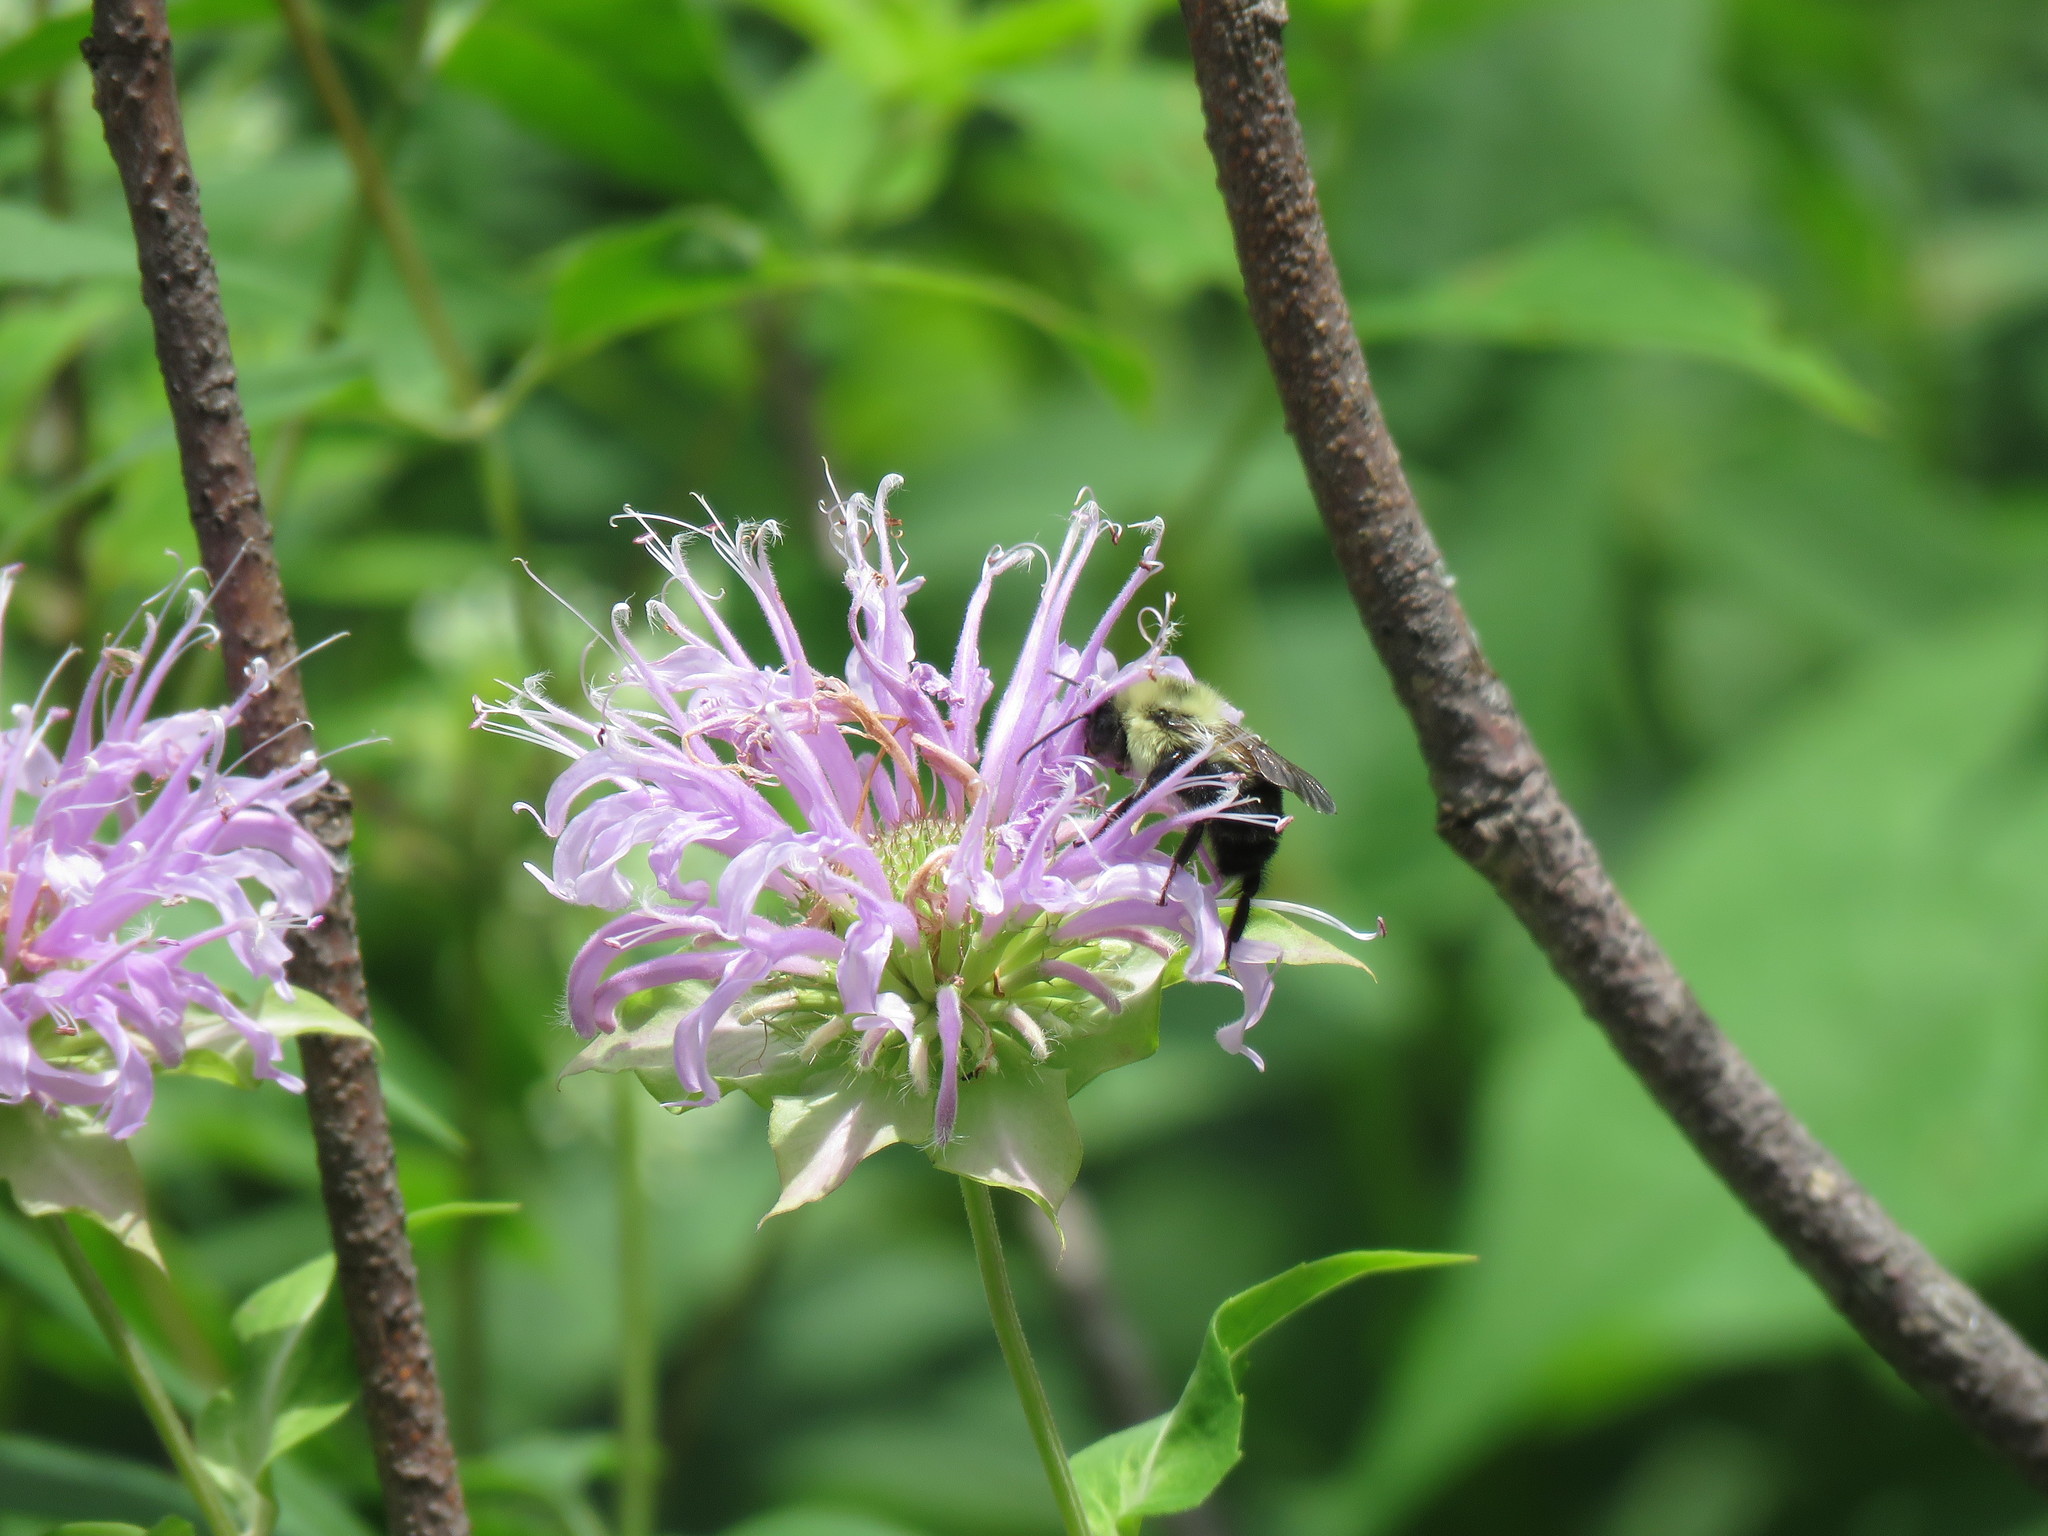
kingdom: Animalia
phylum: Arthropoda
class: Insecta
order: Hymenoptera
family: Apidae
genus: Bombus
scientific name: Bombus bimaculatus
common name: Two-spotted bumble bee
